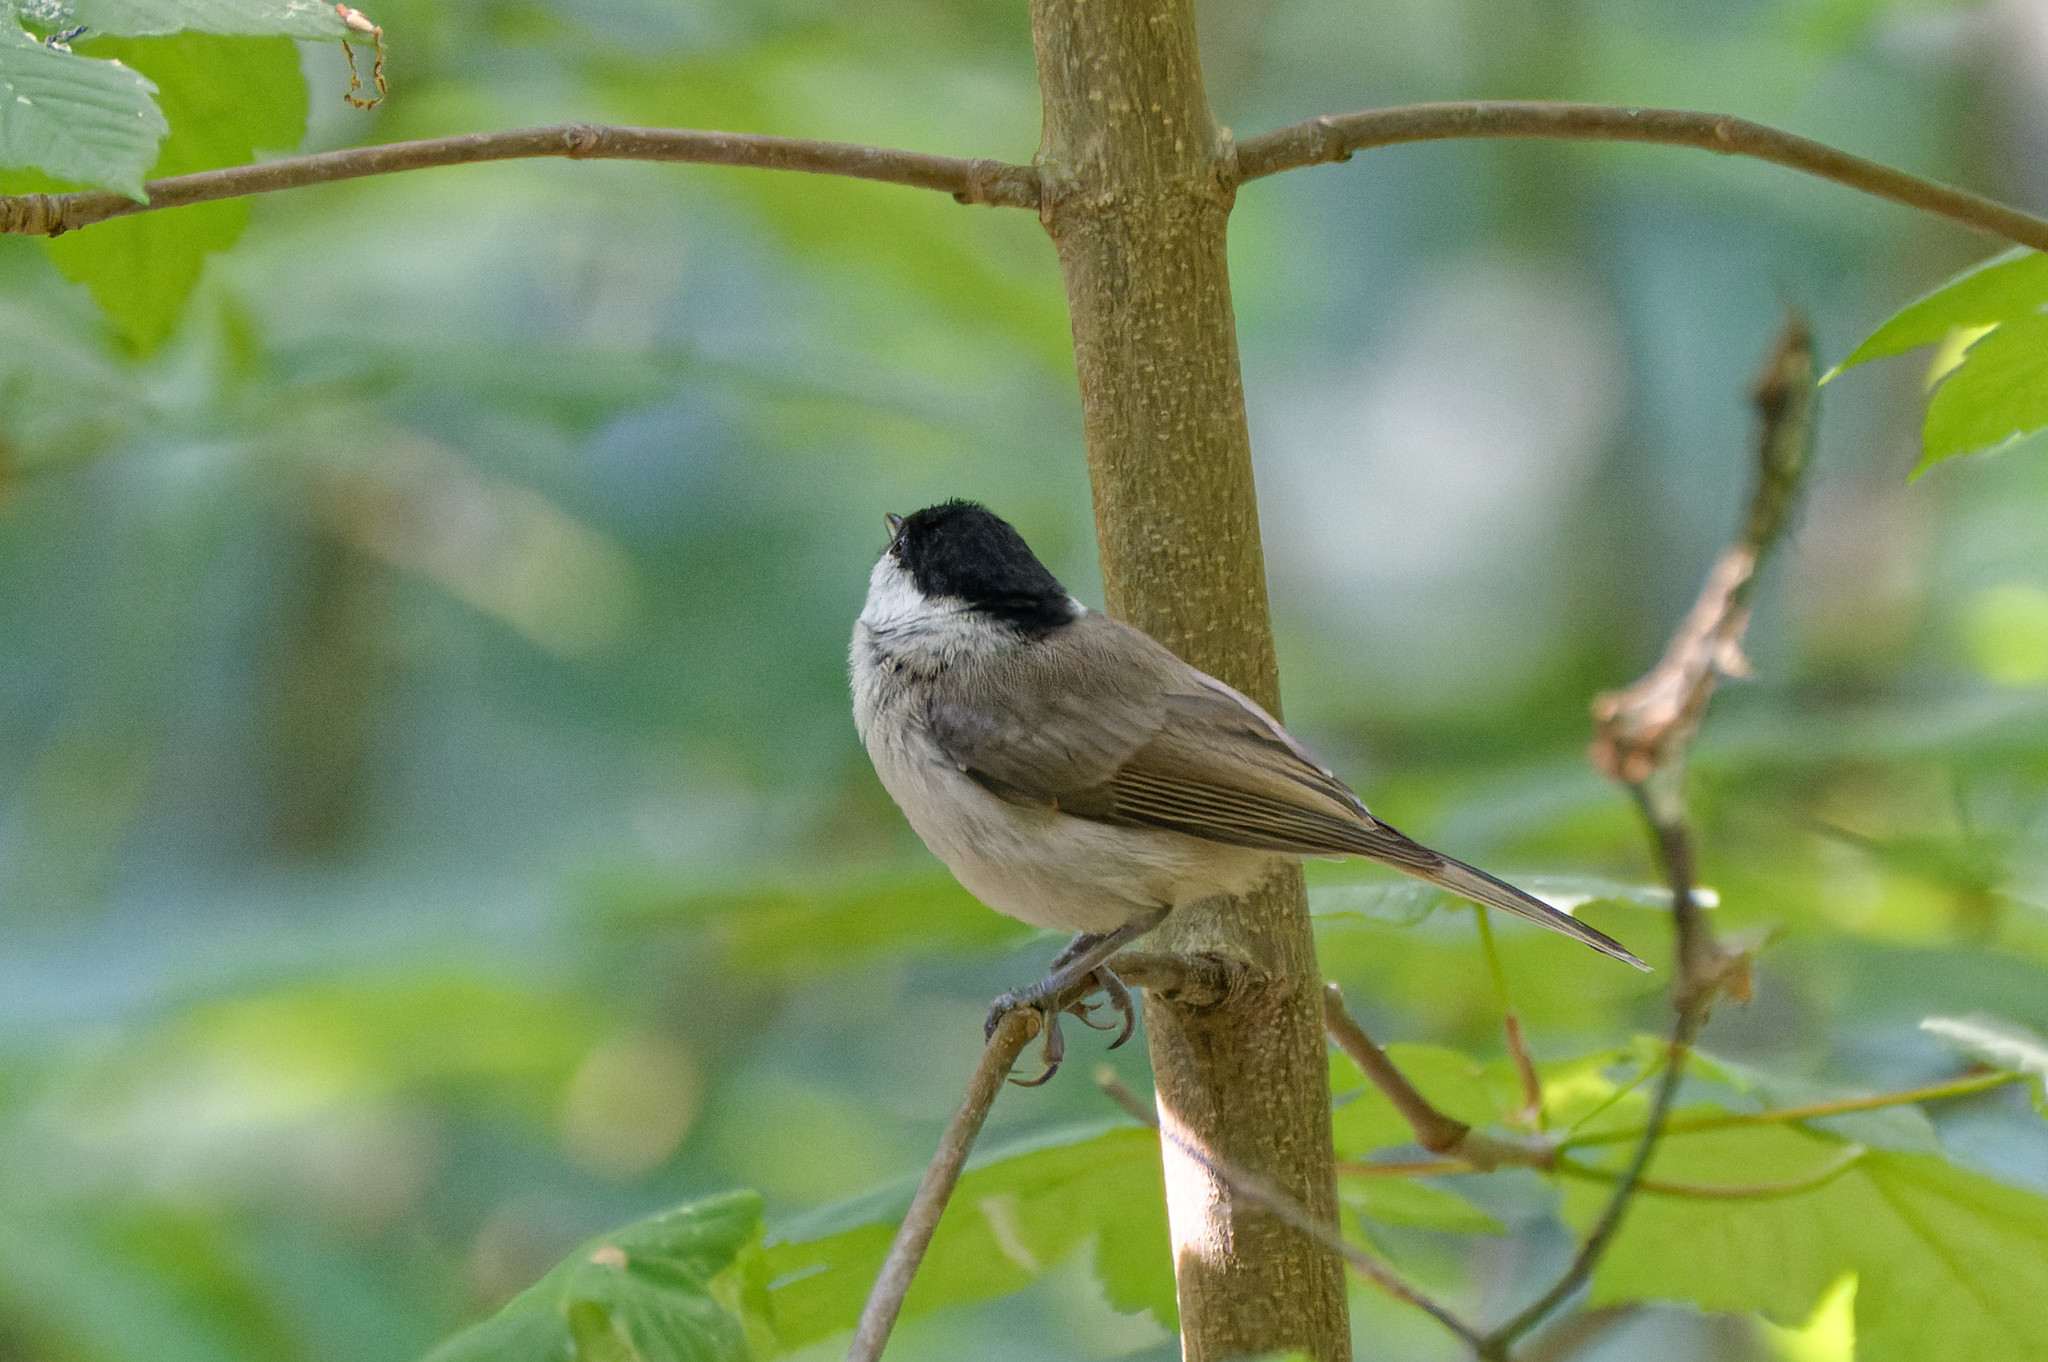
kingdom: Animalia
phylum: Chordata
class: Aves
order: Passeriformes
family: Paridae
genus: Poecile
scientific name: Poecile palustris
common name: Marsh tit
